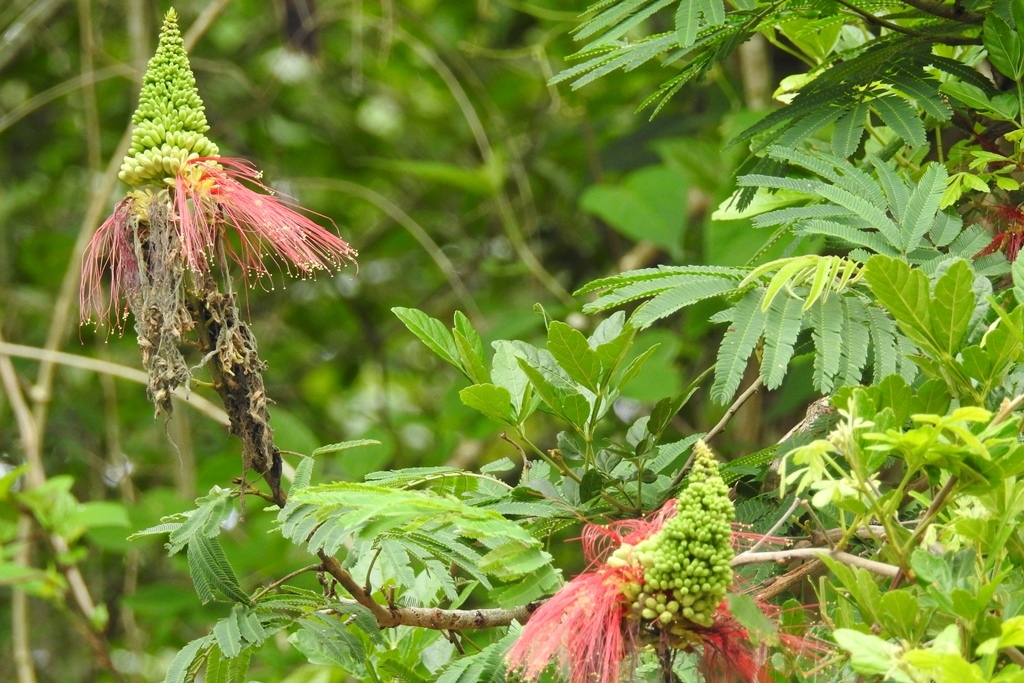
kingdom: Plantae
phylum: Tracheophyta
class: Magnoliopsida
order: Fabales
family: Fabaceae
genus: Calliandra
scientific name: Calliandra houstoniana
